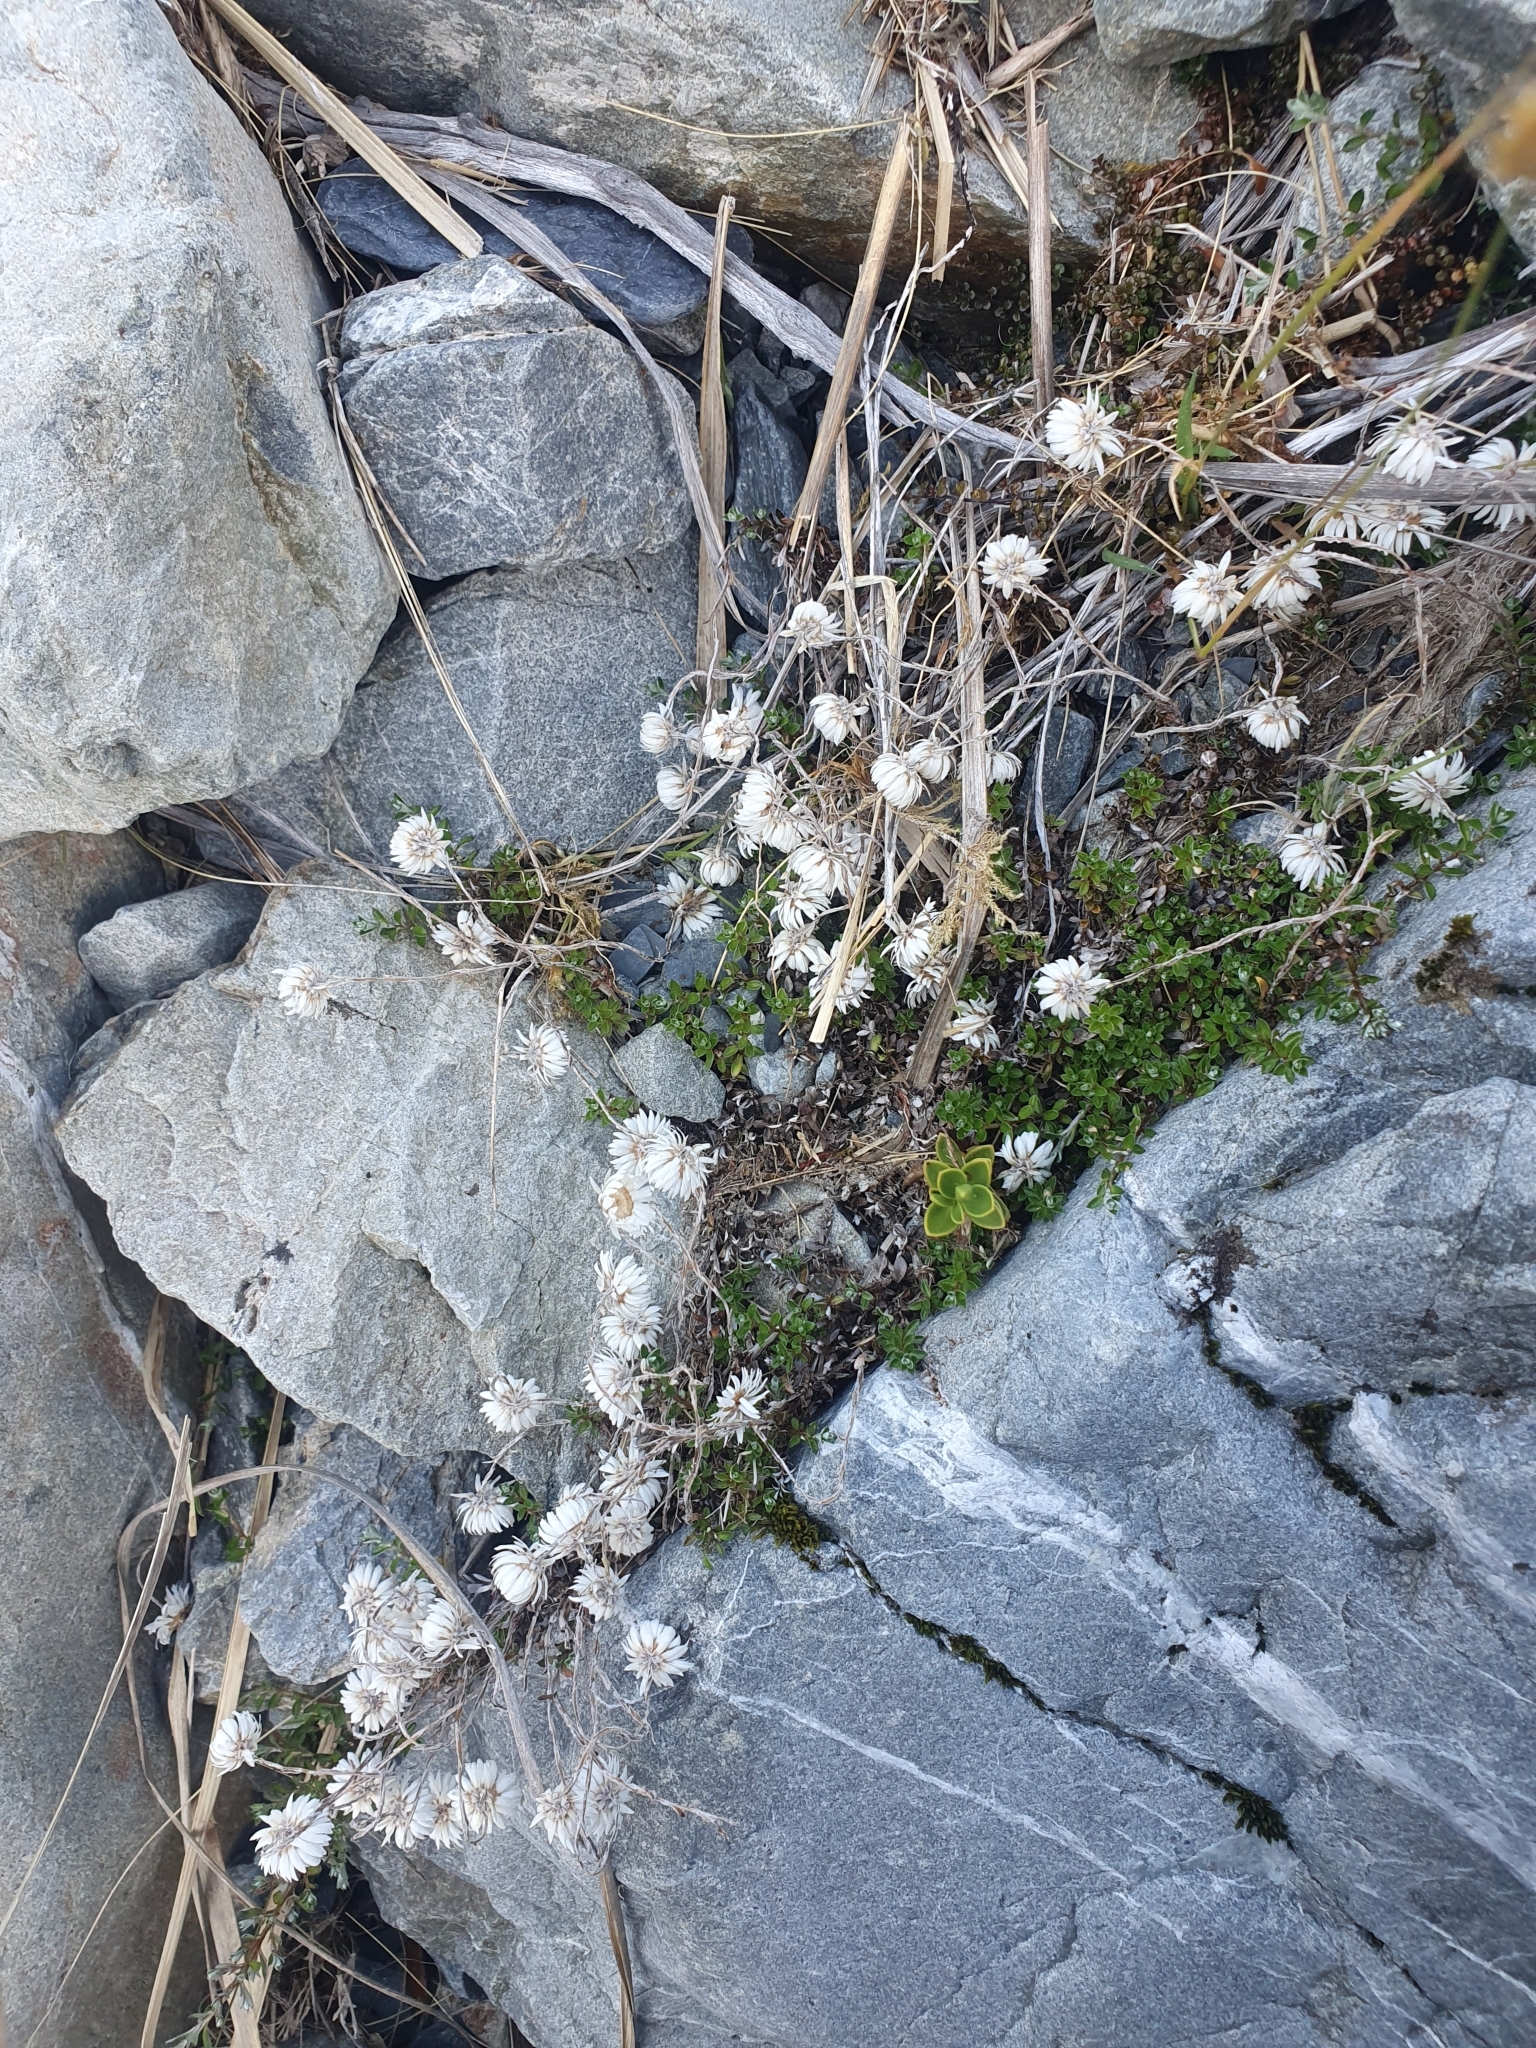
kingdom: Plantae
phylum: Tracheophyta
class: Magnoliopsida
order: Asterales
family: Asteraceae
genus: Anaphalioides
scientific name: Anaphalioides bellidioides
